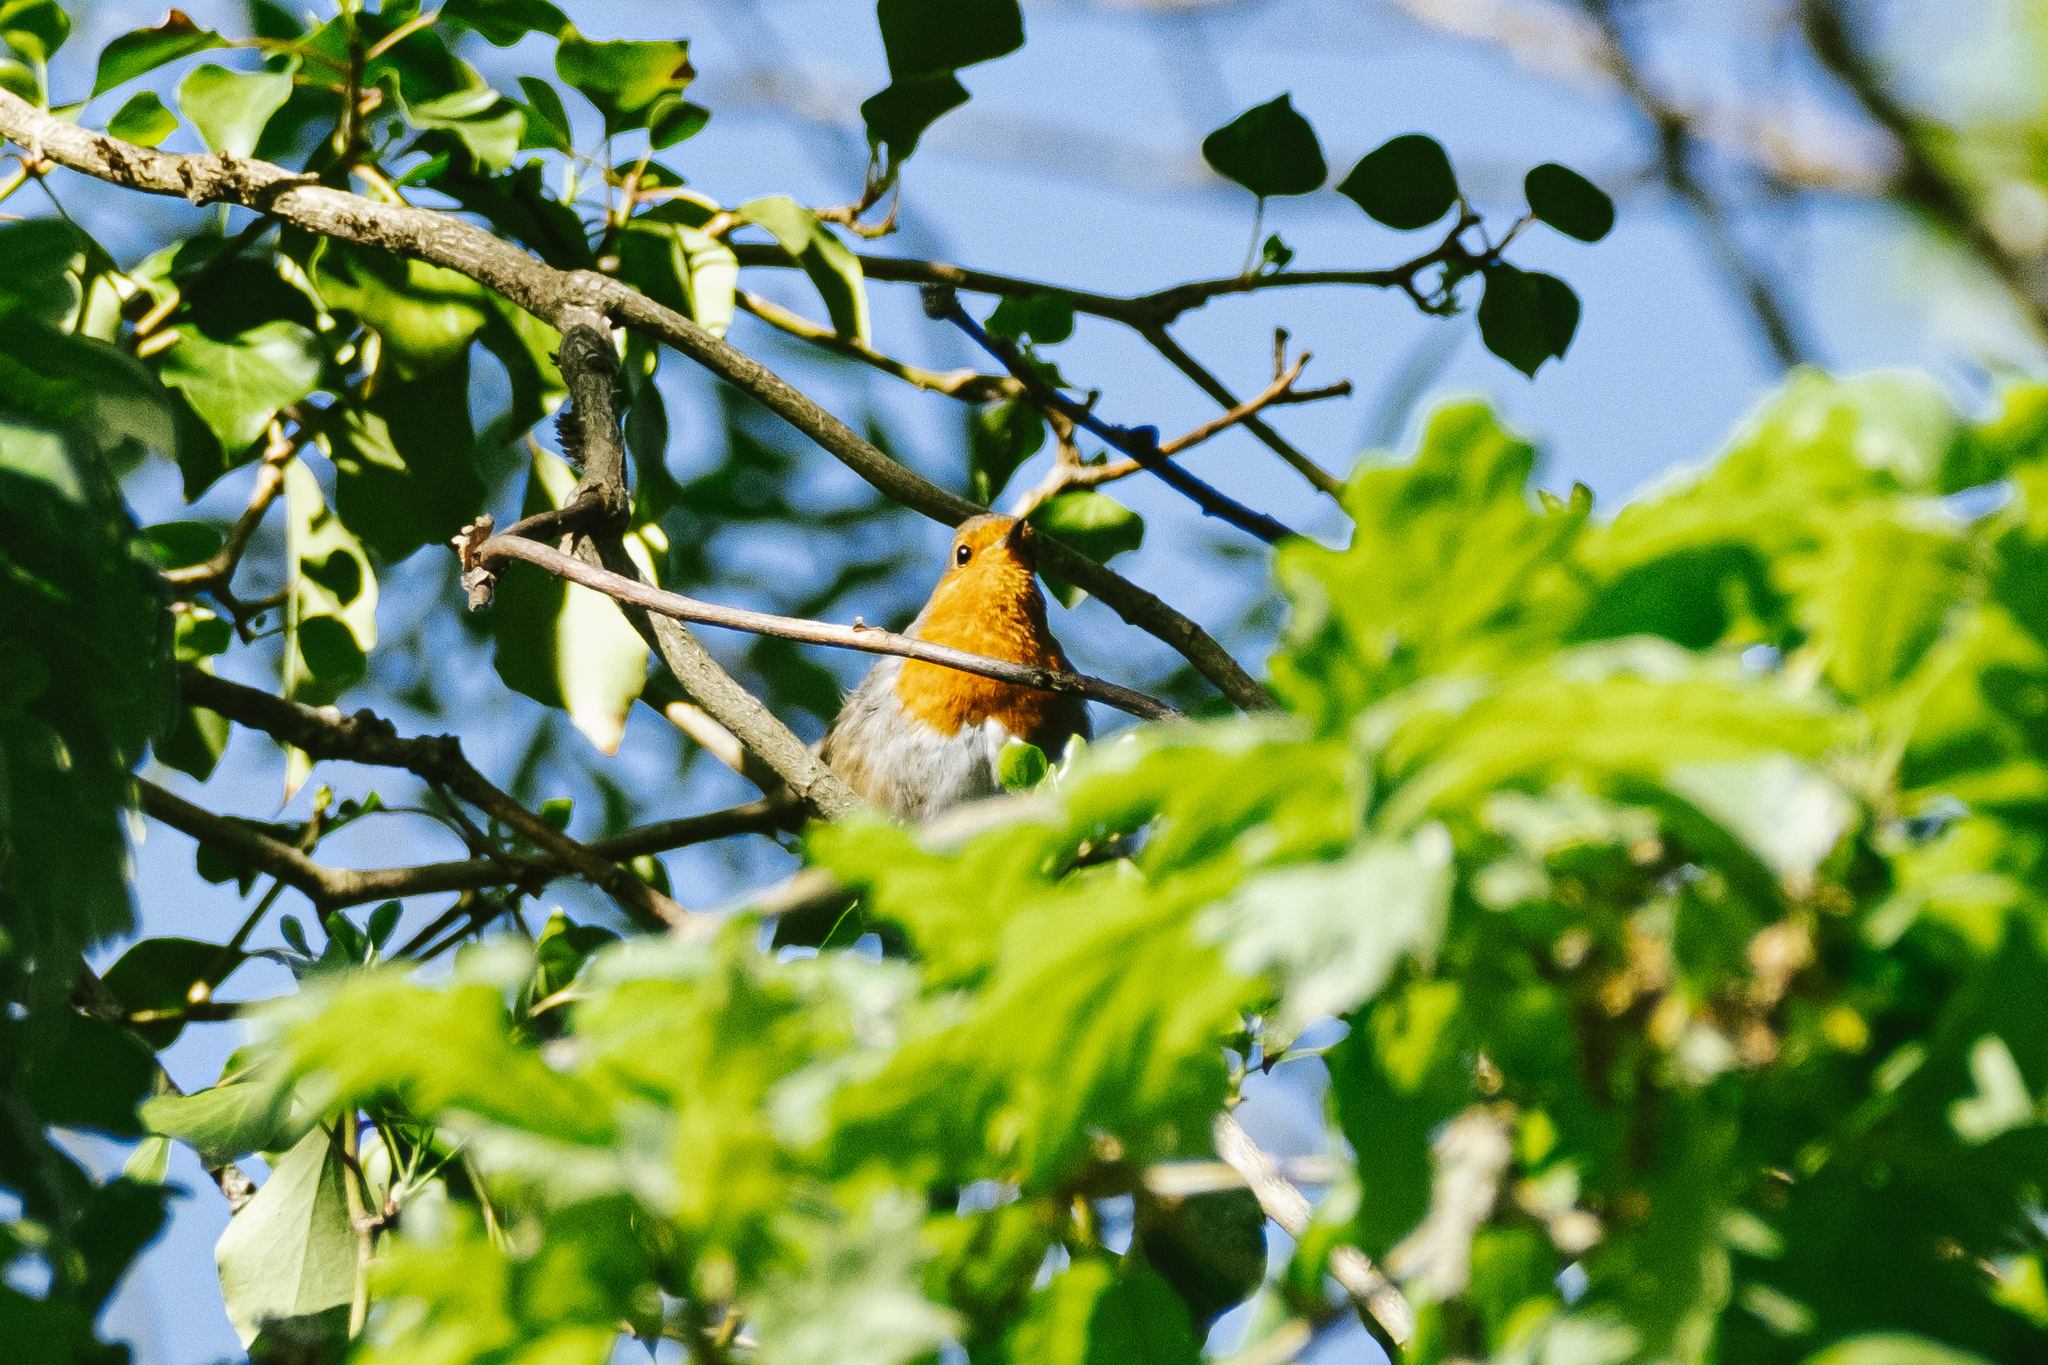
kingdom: Animalia
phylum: Chordata
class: Aves
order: Passeriformes
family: Muscicapidae
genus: Erithacus
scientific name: Erithacus rubecula
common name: European robin
